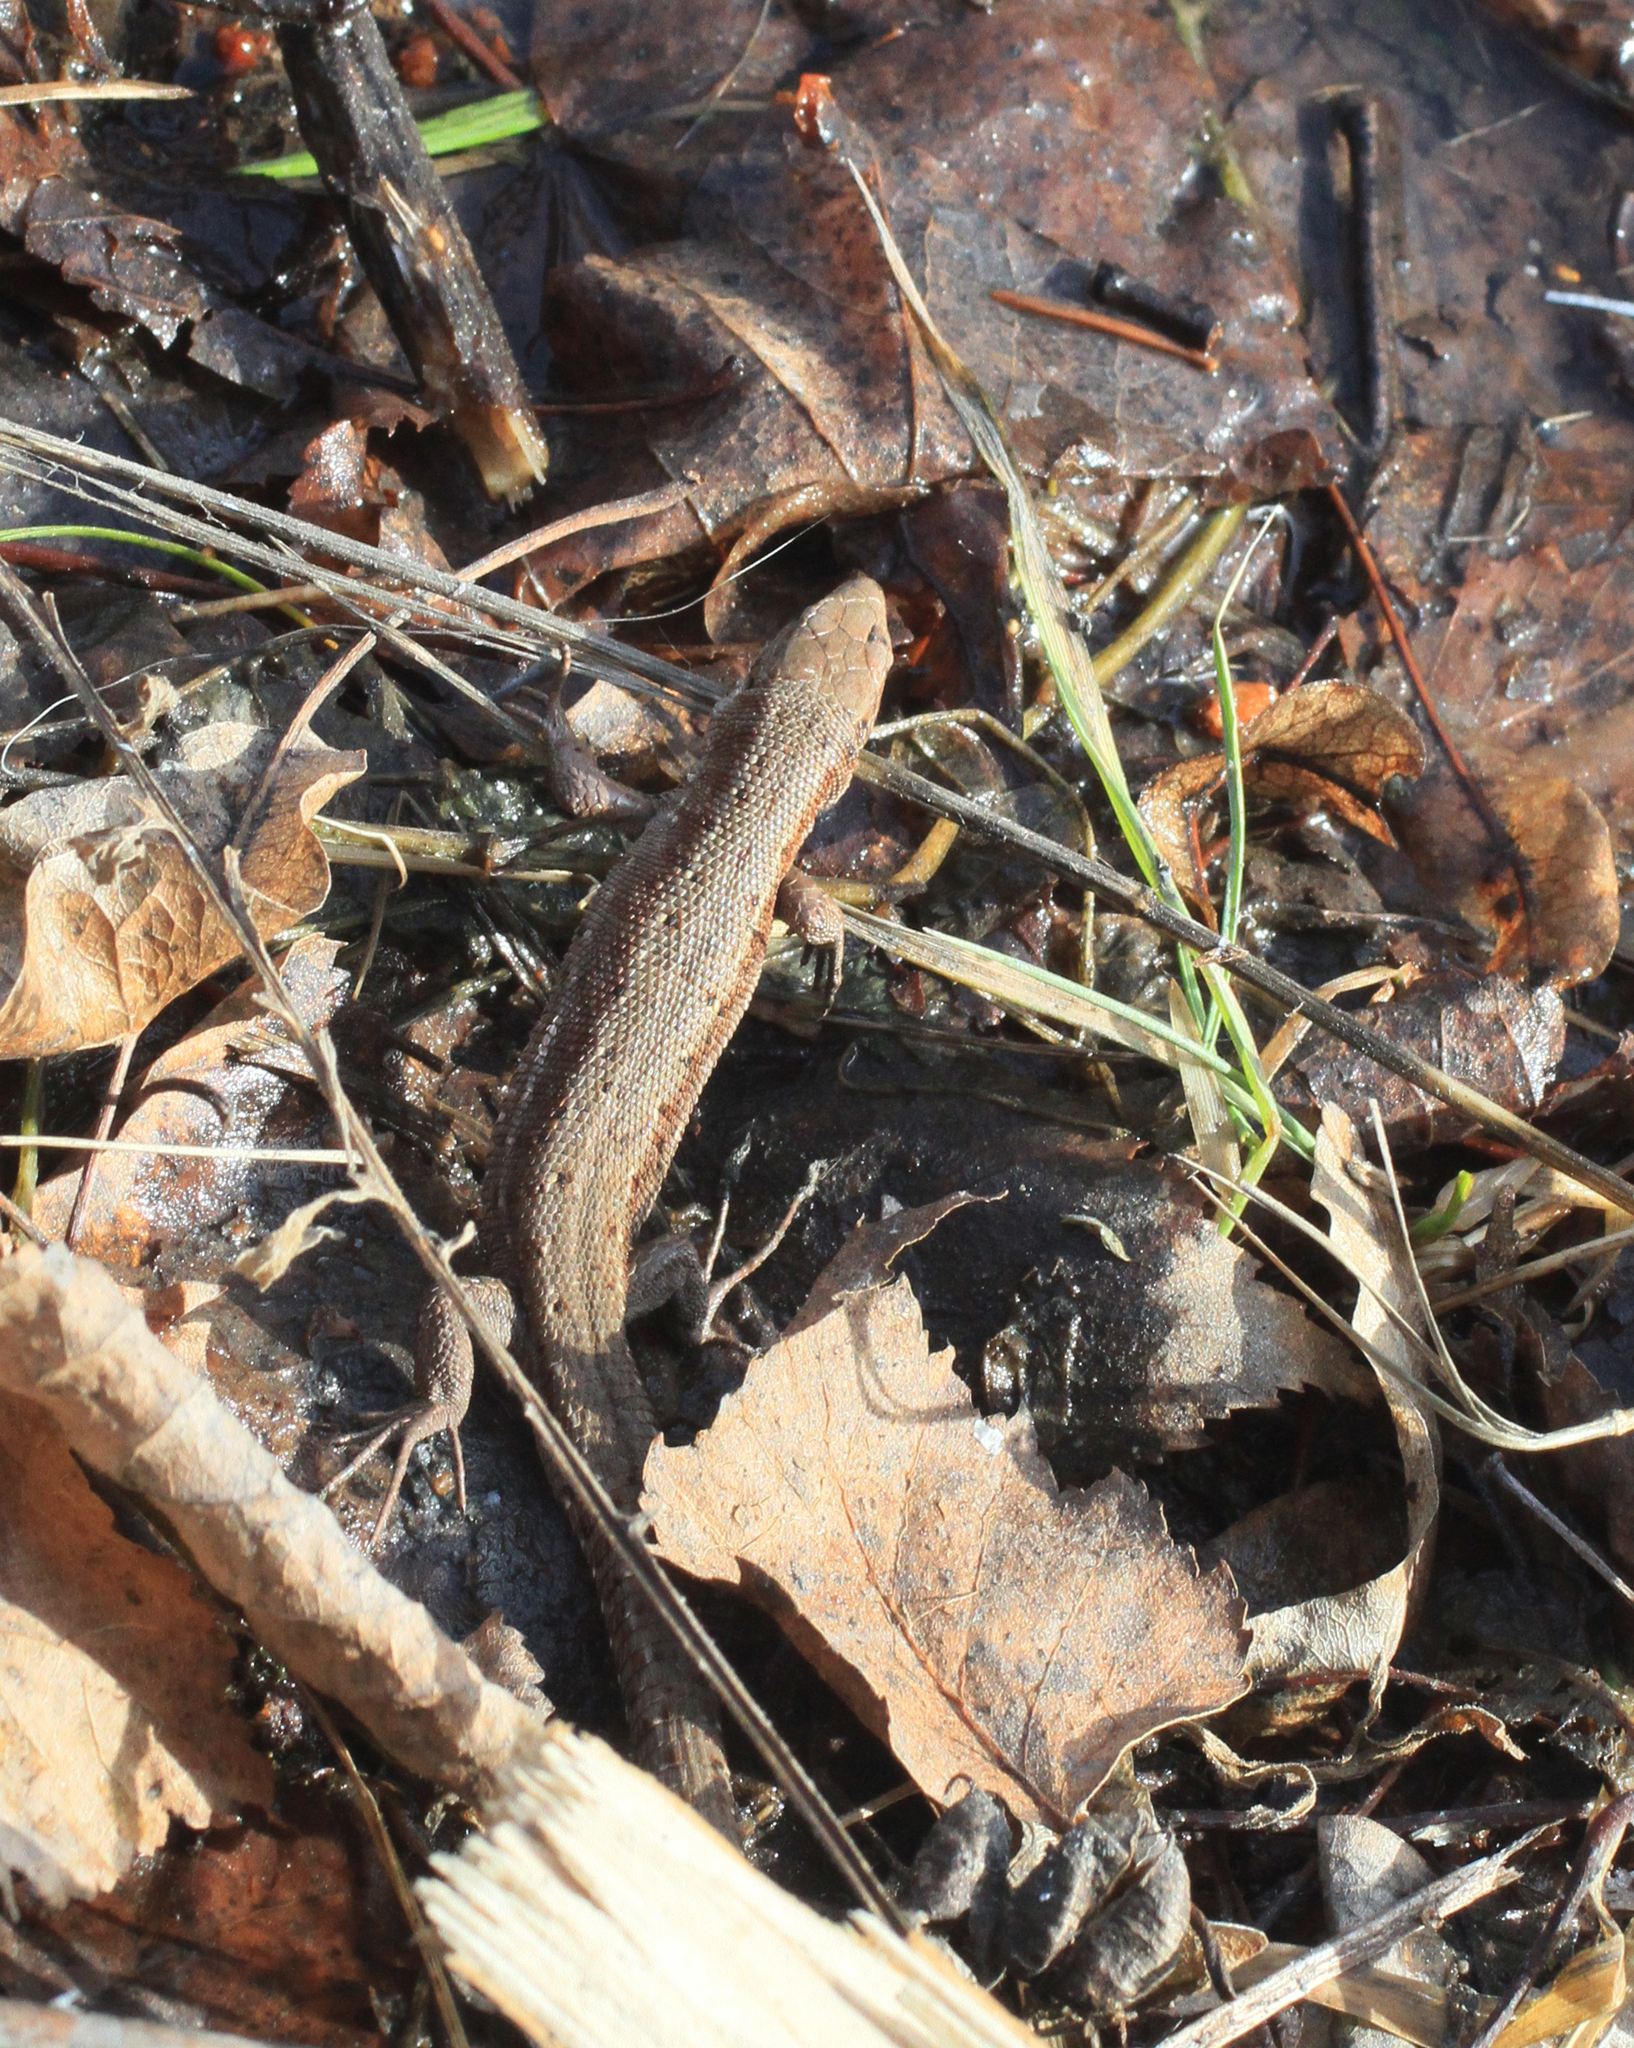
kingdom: Animalia
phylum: Chordata
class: Squamata
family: Lacertidae
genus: Zootoca
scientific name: Zootoca vivipara
